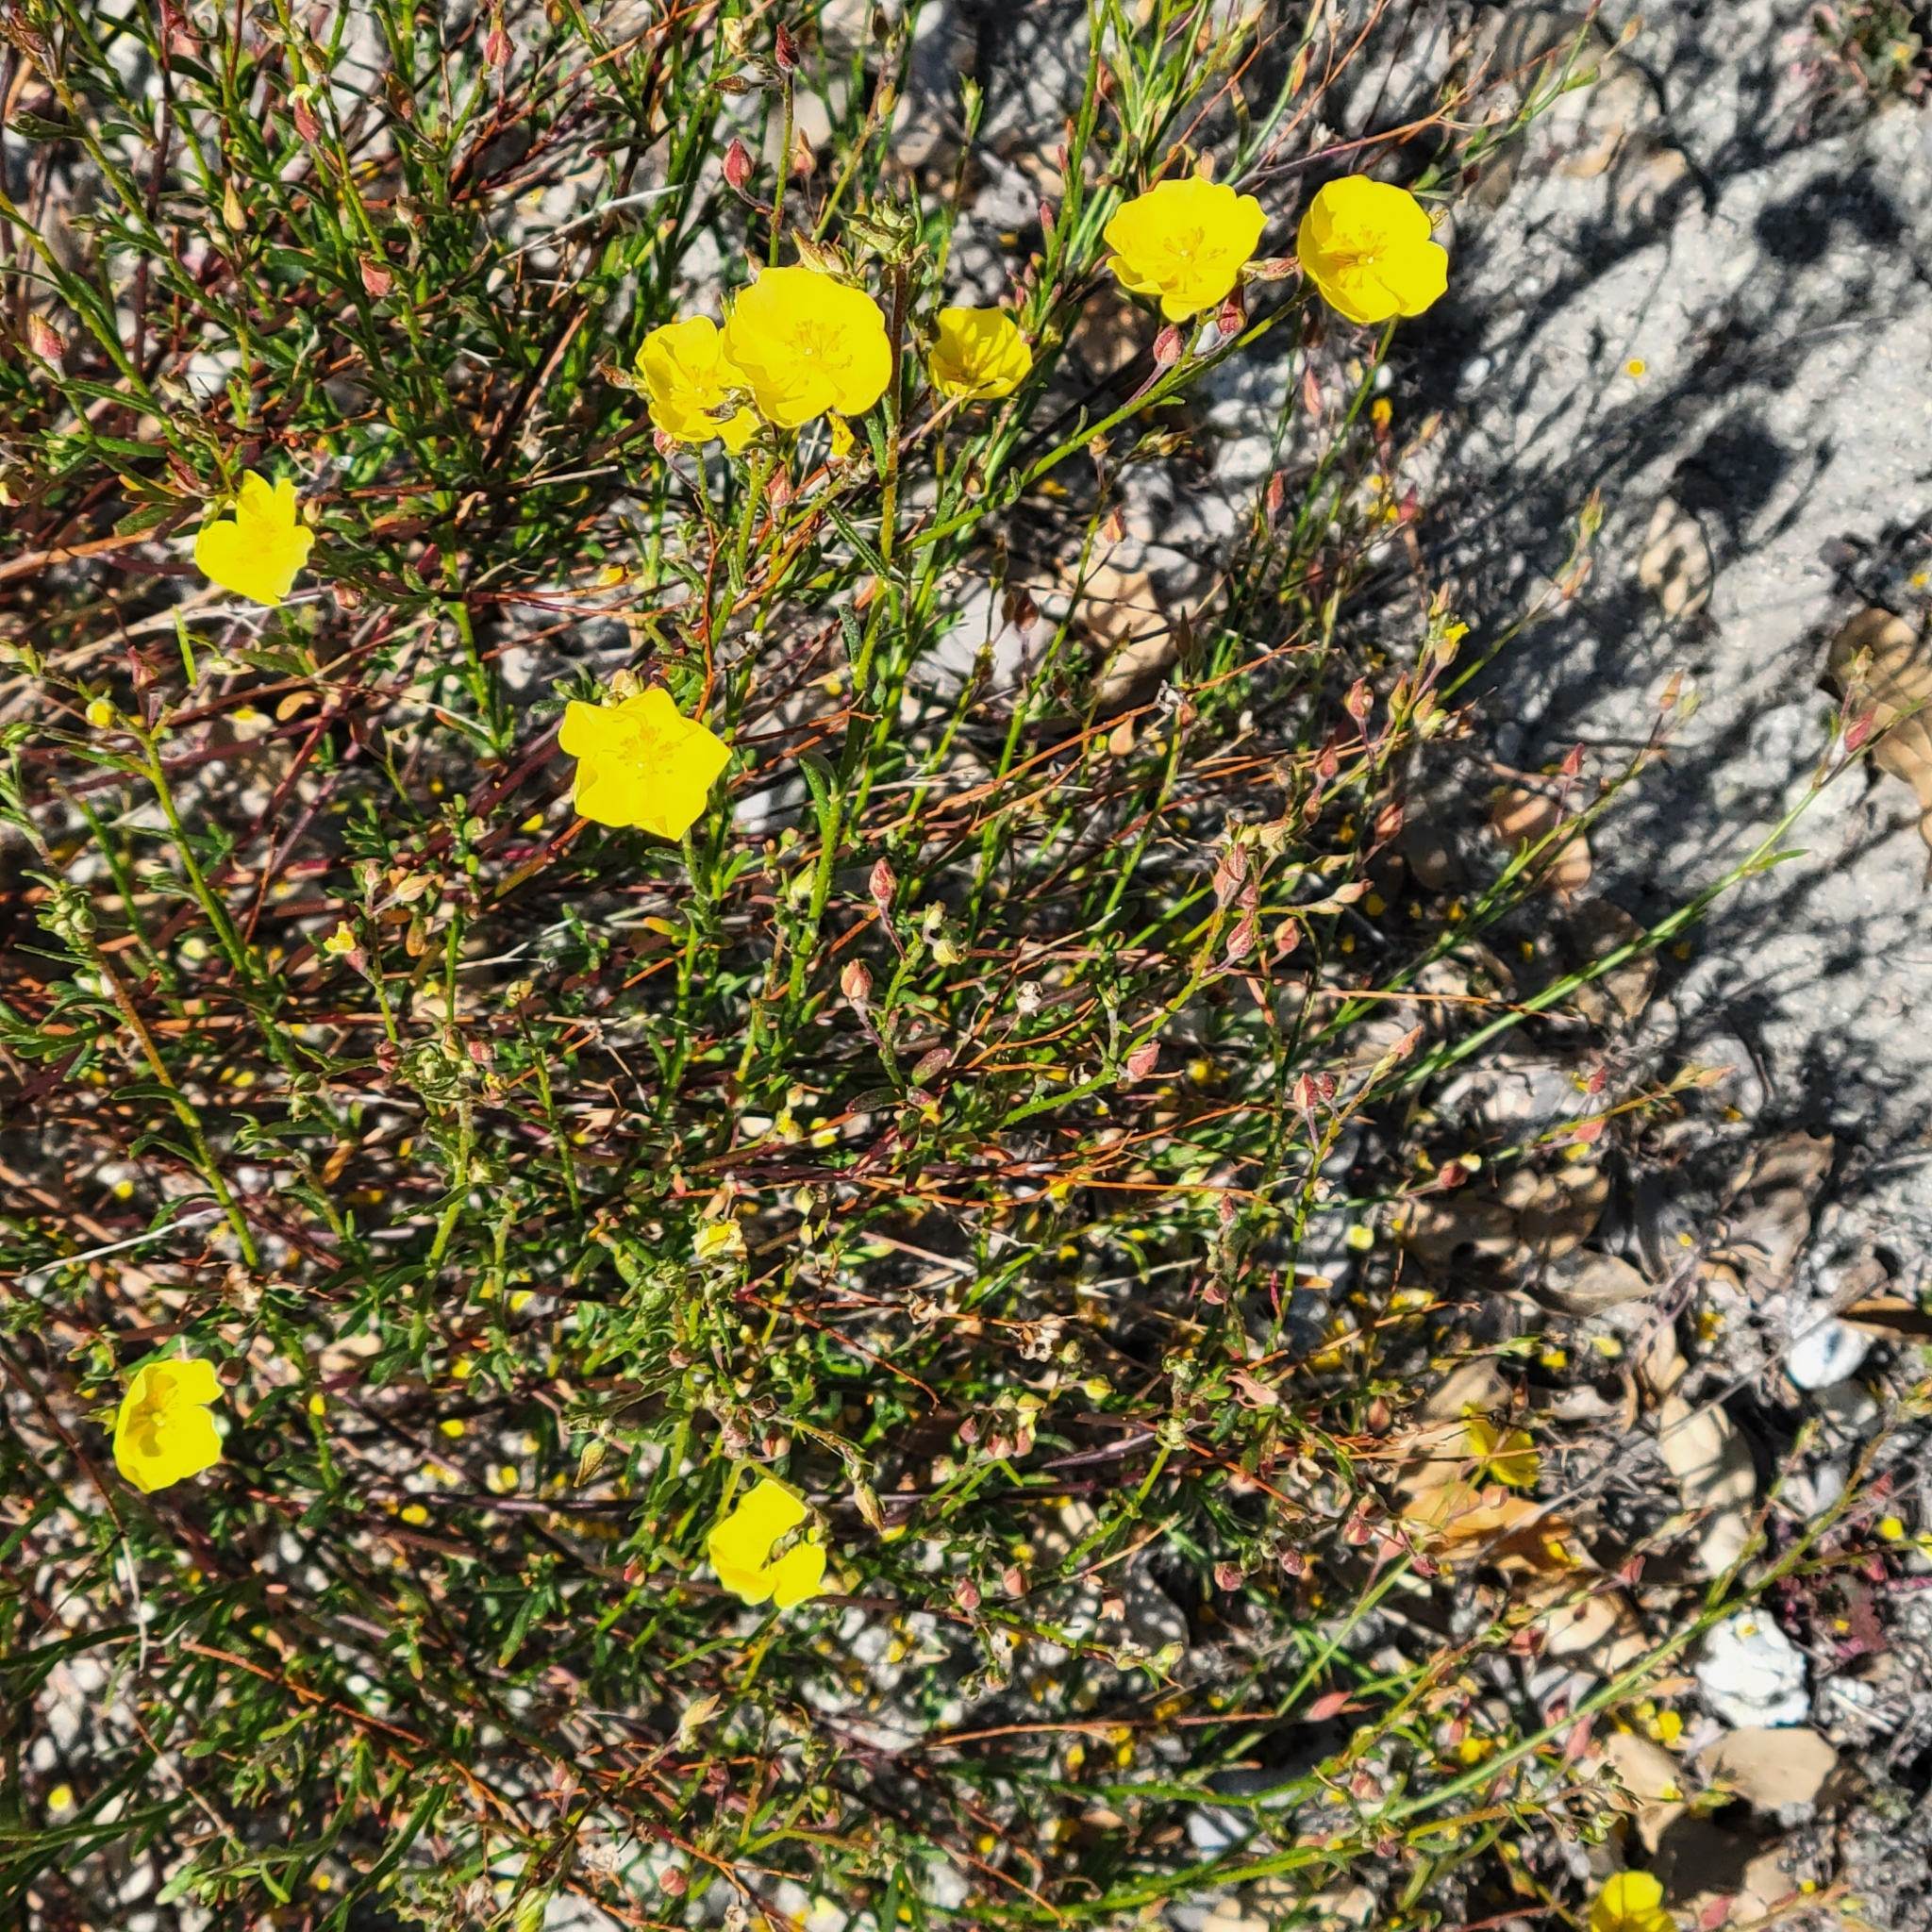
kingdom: Plantae
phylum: Tracheophyta
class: Magnoliopsida
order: Malvales
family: Cistaceae
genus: Crocanthemum
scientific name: Crocanthemum scoparium
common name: Broom-rose
